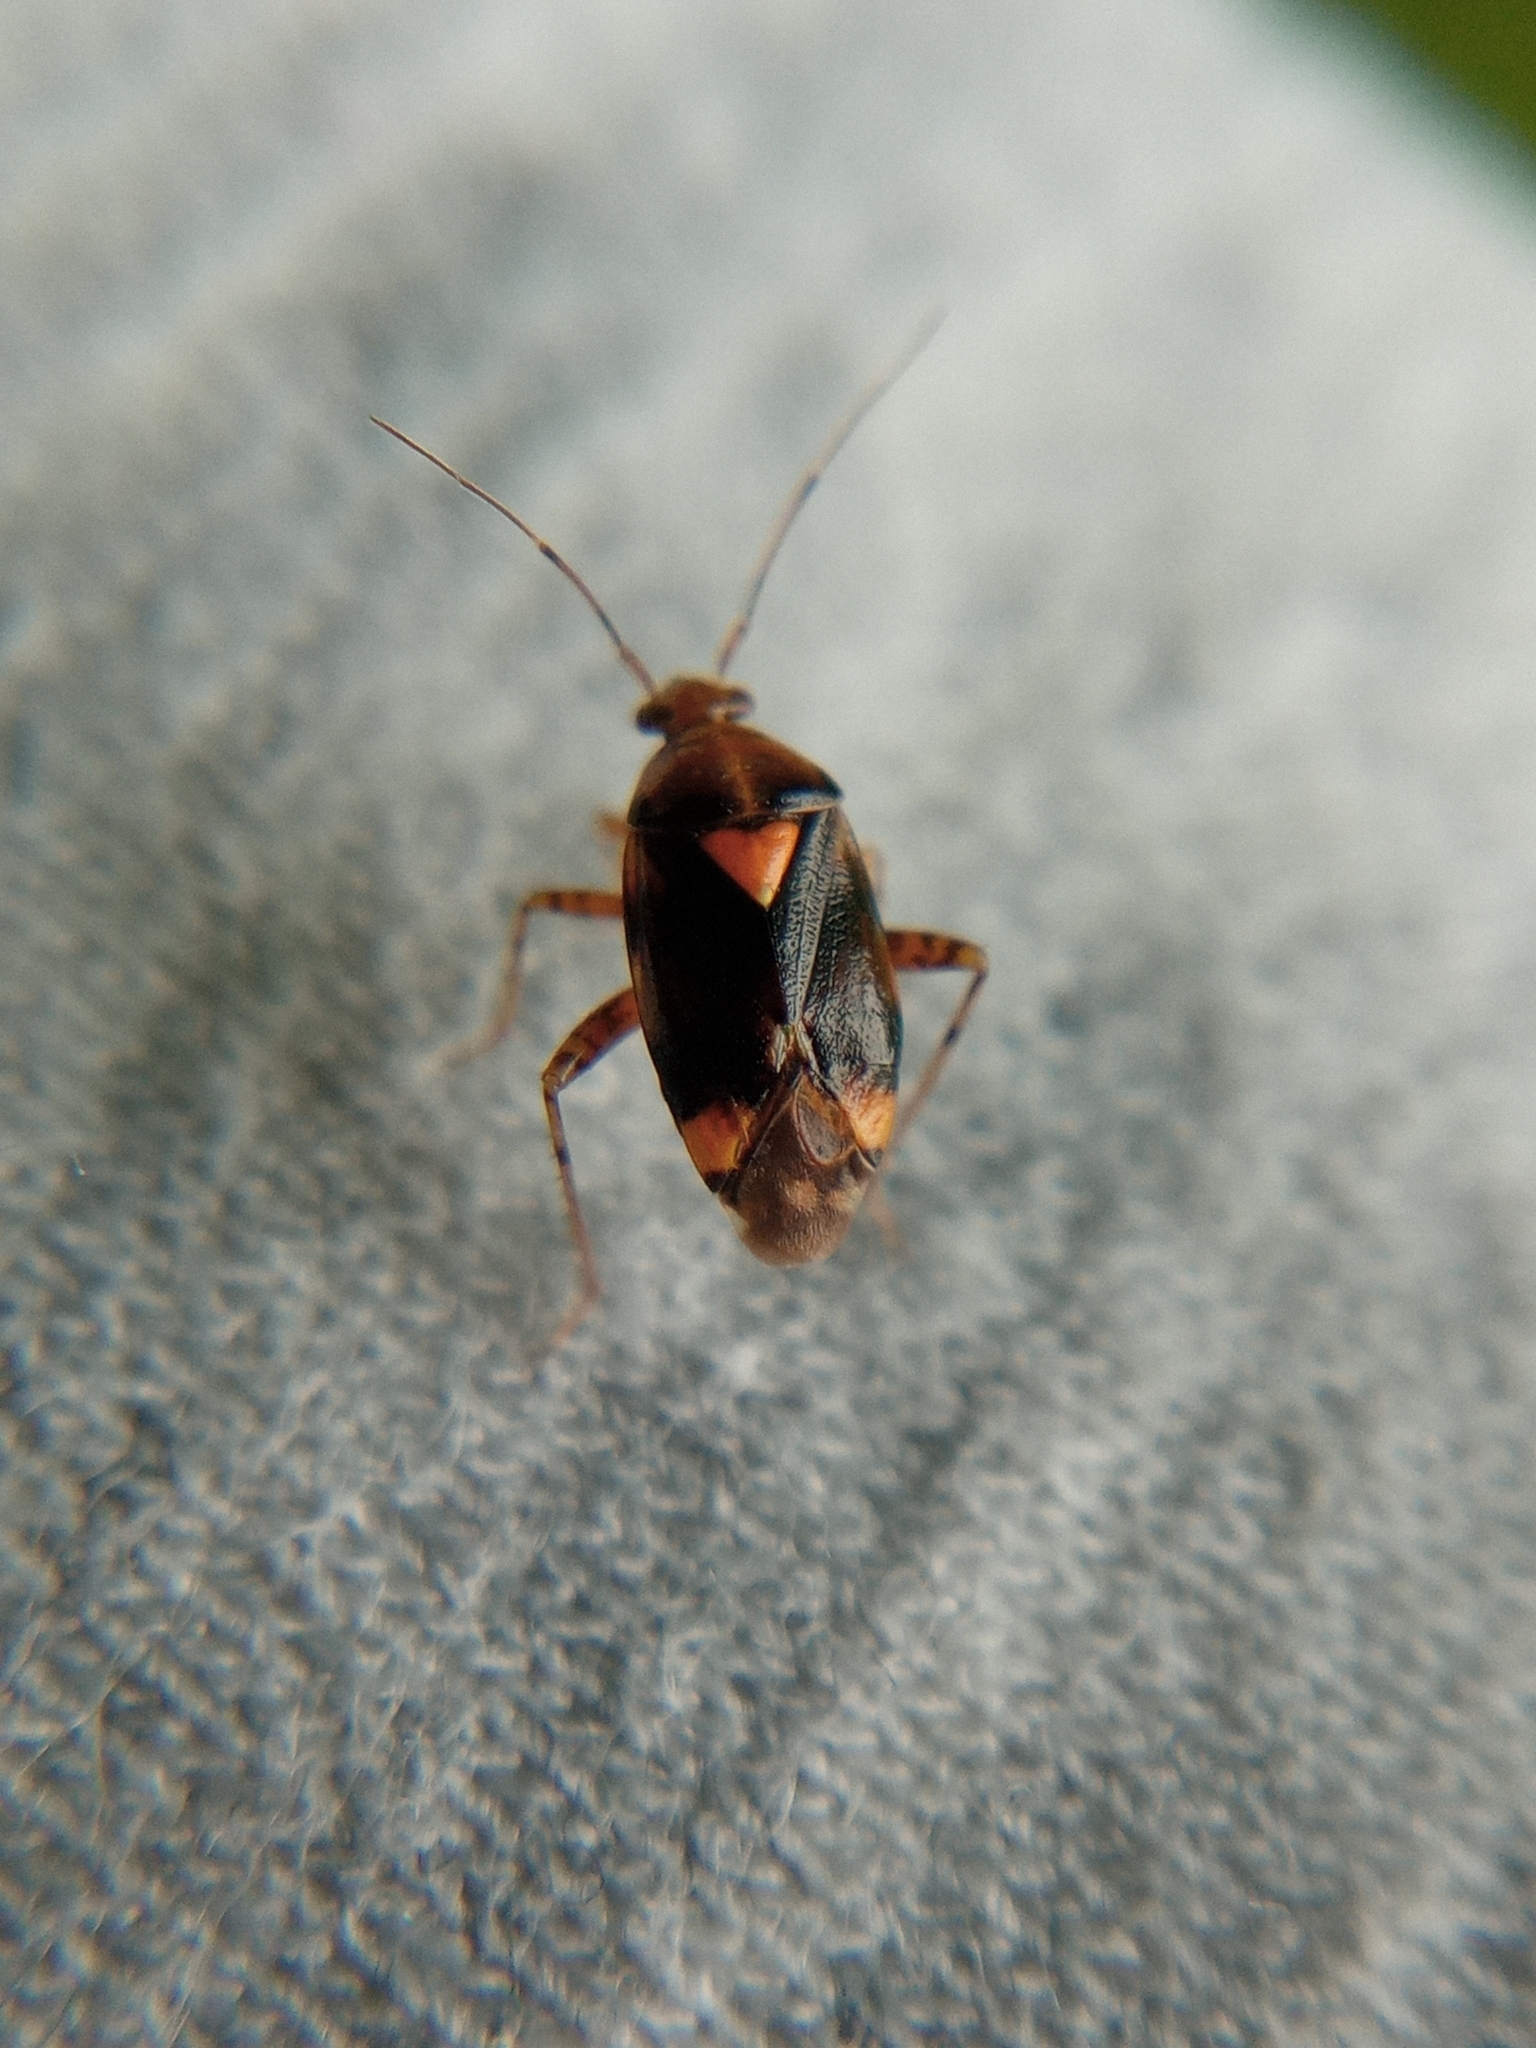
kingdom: Animalia
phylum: Arthropoda
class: Insecta
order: Hemiptera
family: Miridae
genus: Liocoris
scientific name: Liocoris tripustulatus
